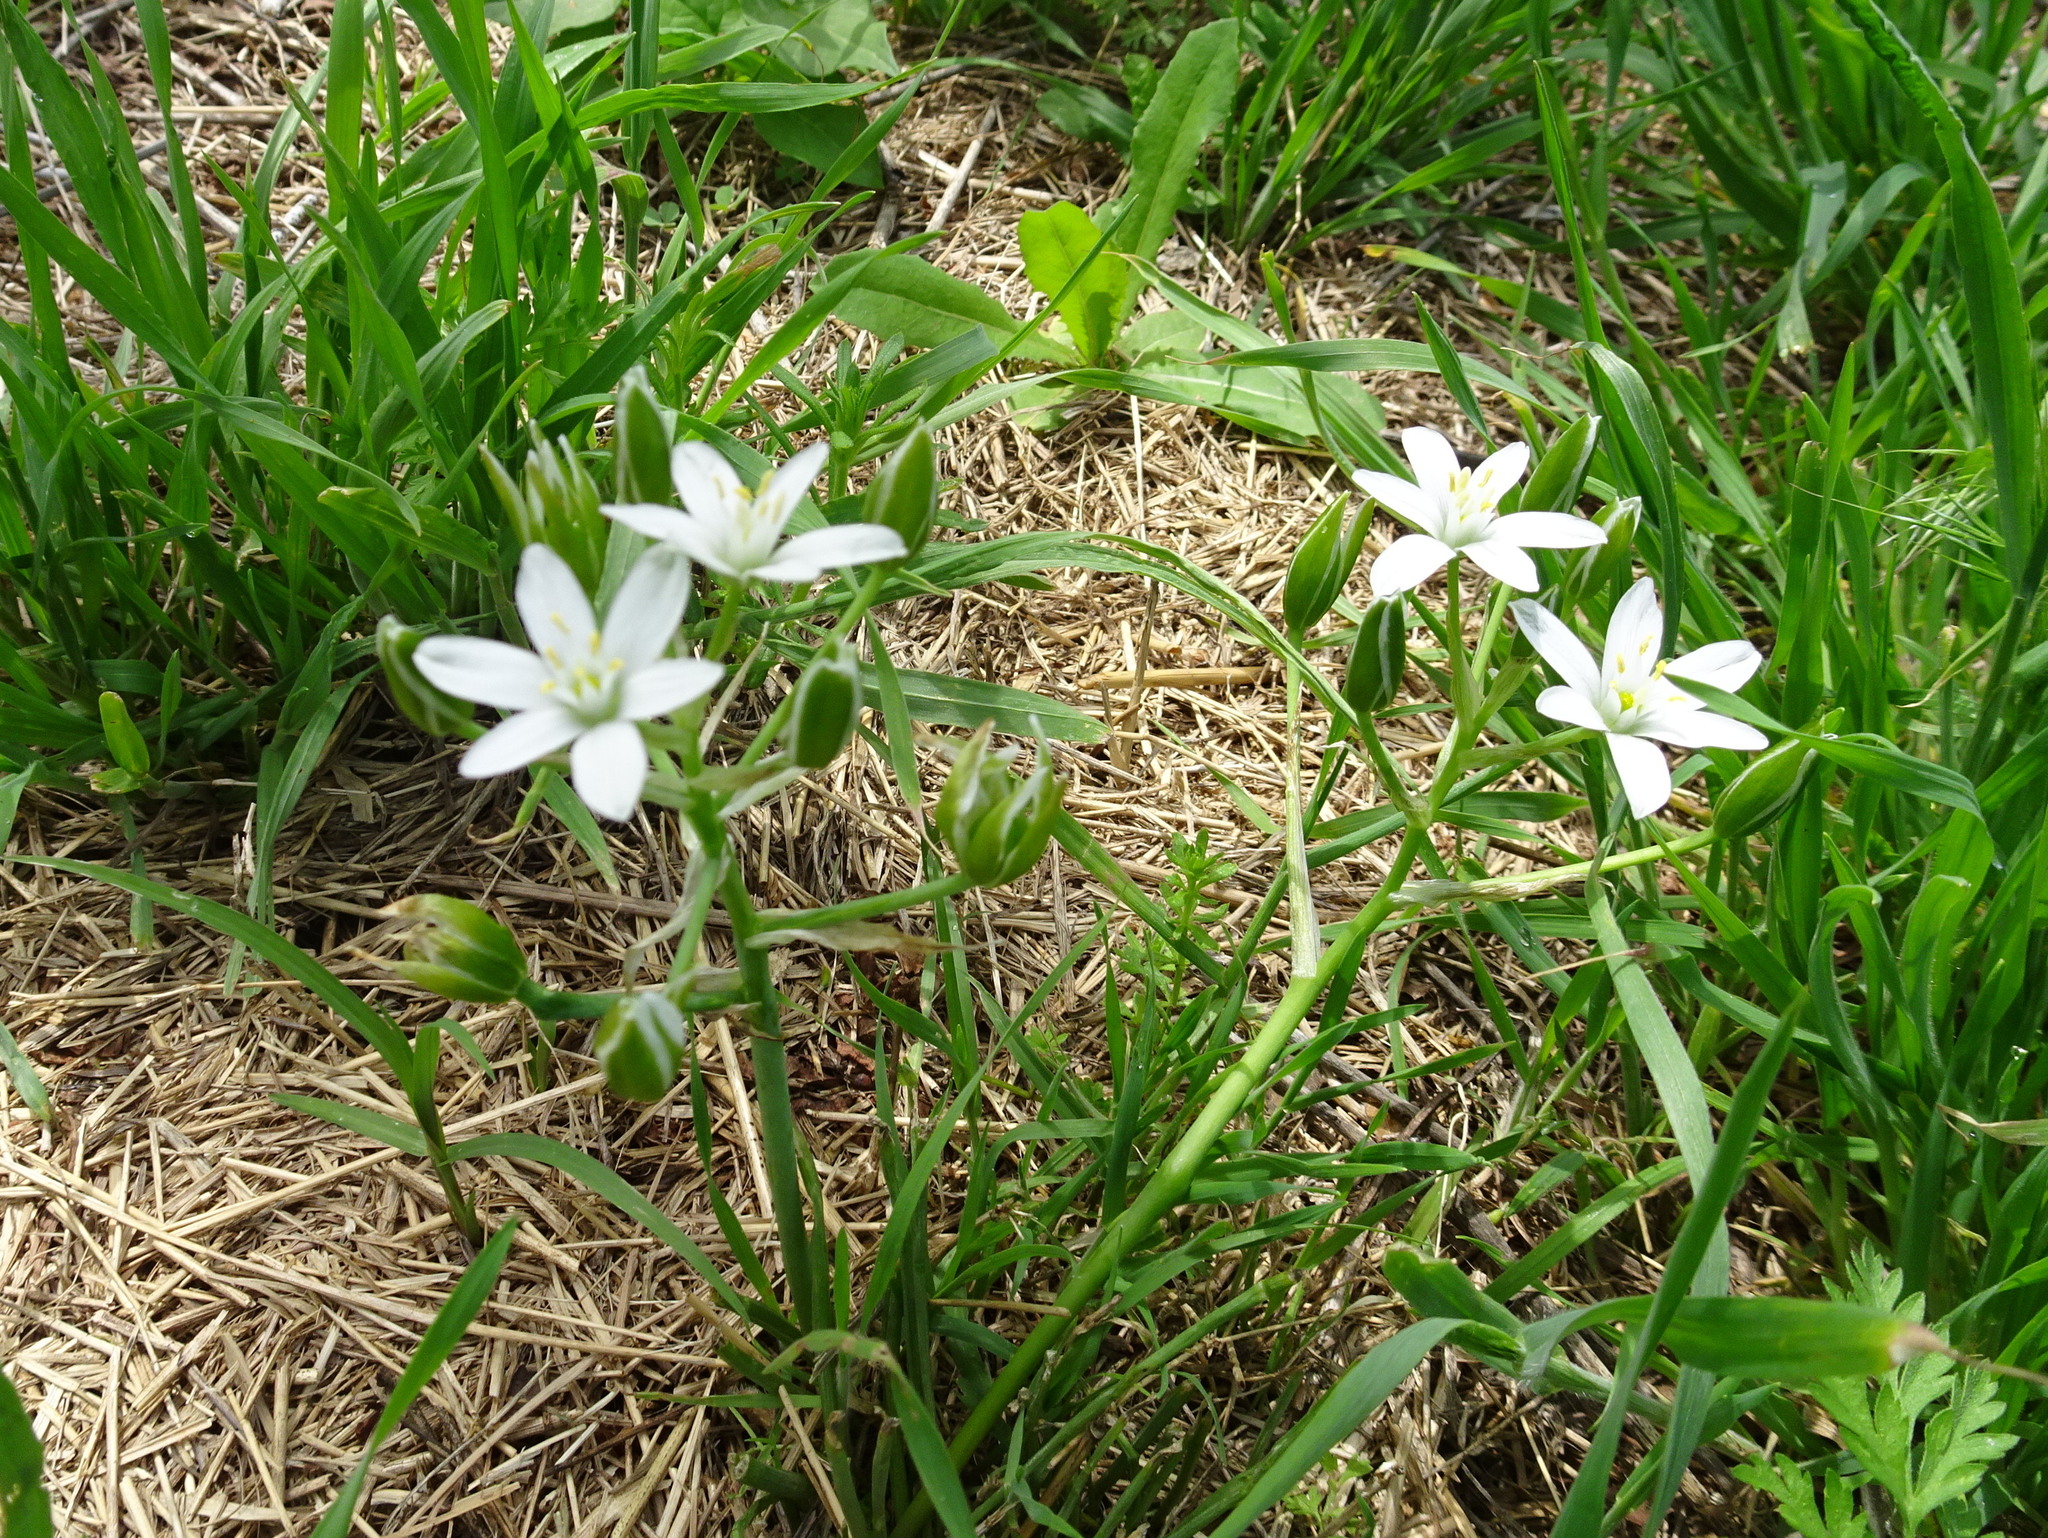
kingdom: Plantae
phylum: Tracheophyta
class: Liliopsida
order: Asparagales
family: Asparagaceae
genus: Ornithogalum
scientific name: Ornithogalum umbellatum
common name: Garden star-of-bethlehem
